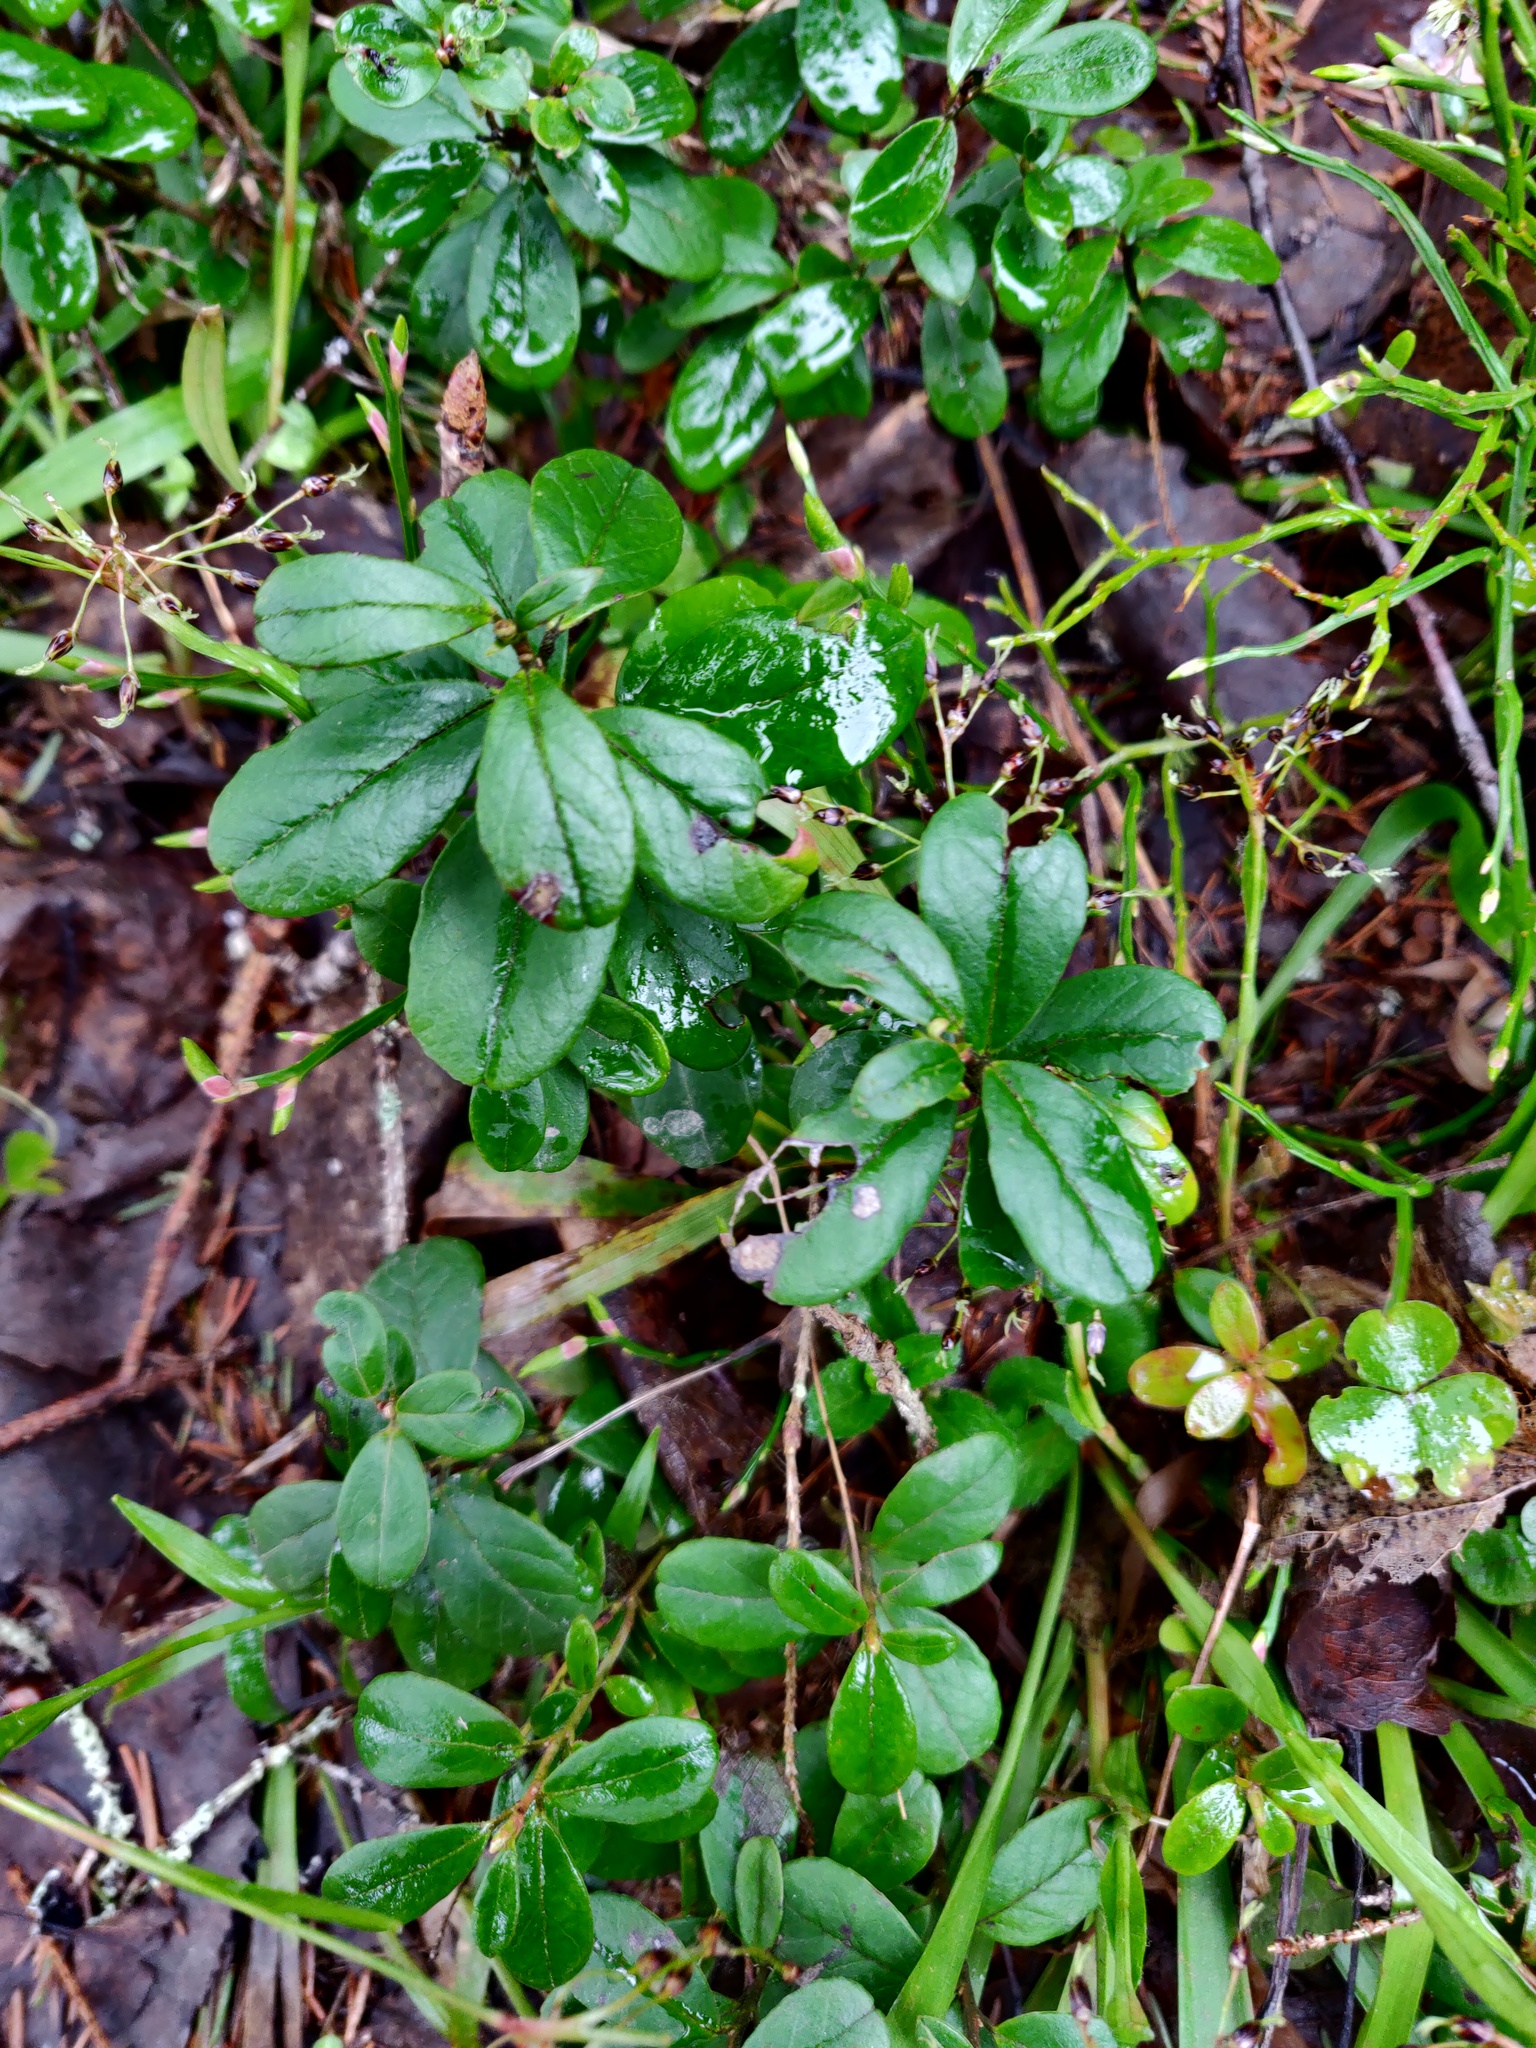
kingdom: Plantae
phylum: Tracheophyta
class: Magnoliopsida
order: Ericales
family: Ericaceae
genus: Vaccinium
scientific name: Vaccinium vitis-idaea
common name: Cowberry
